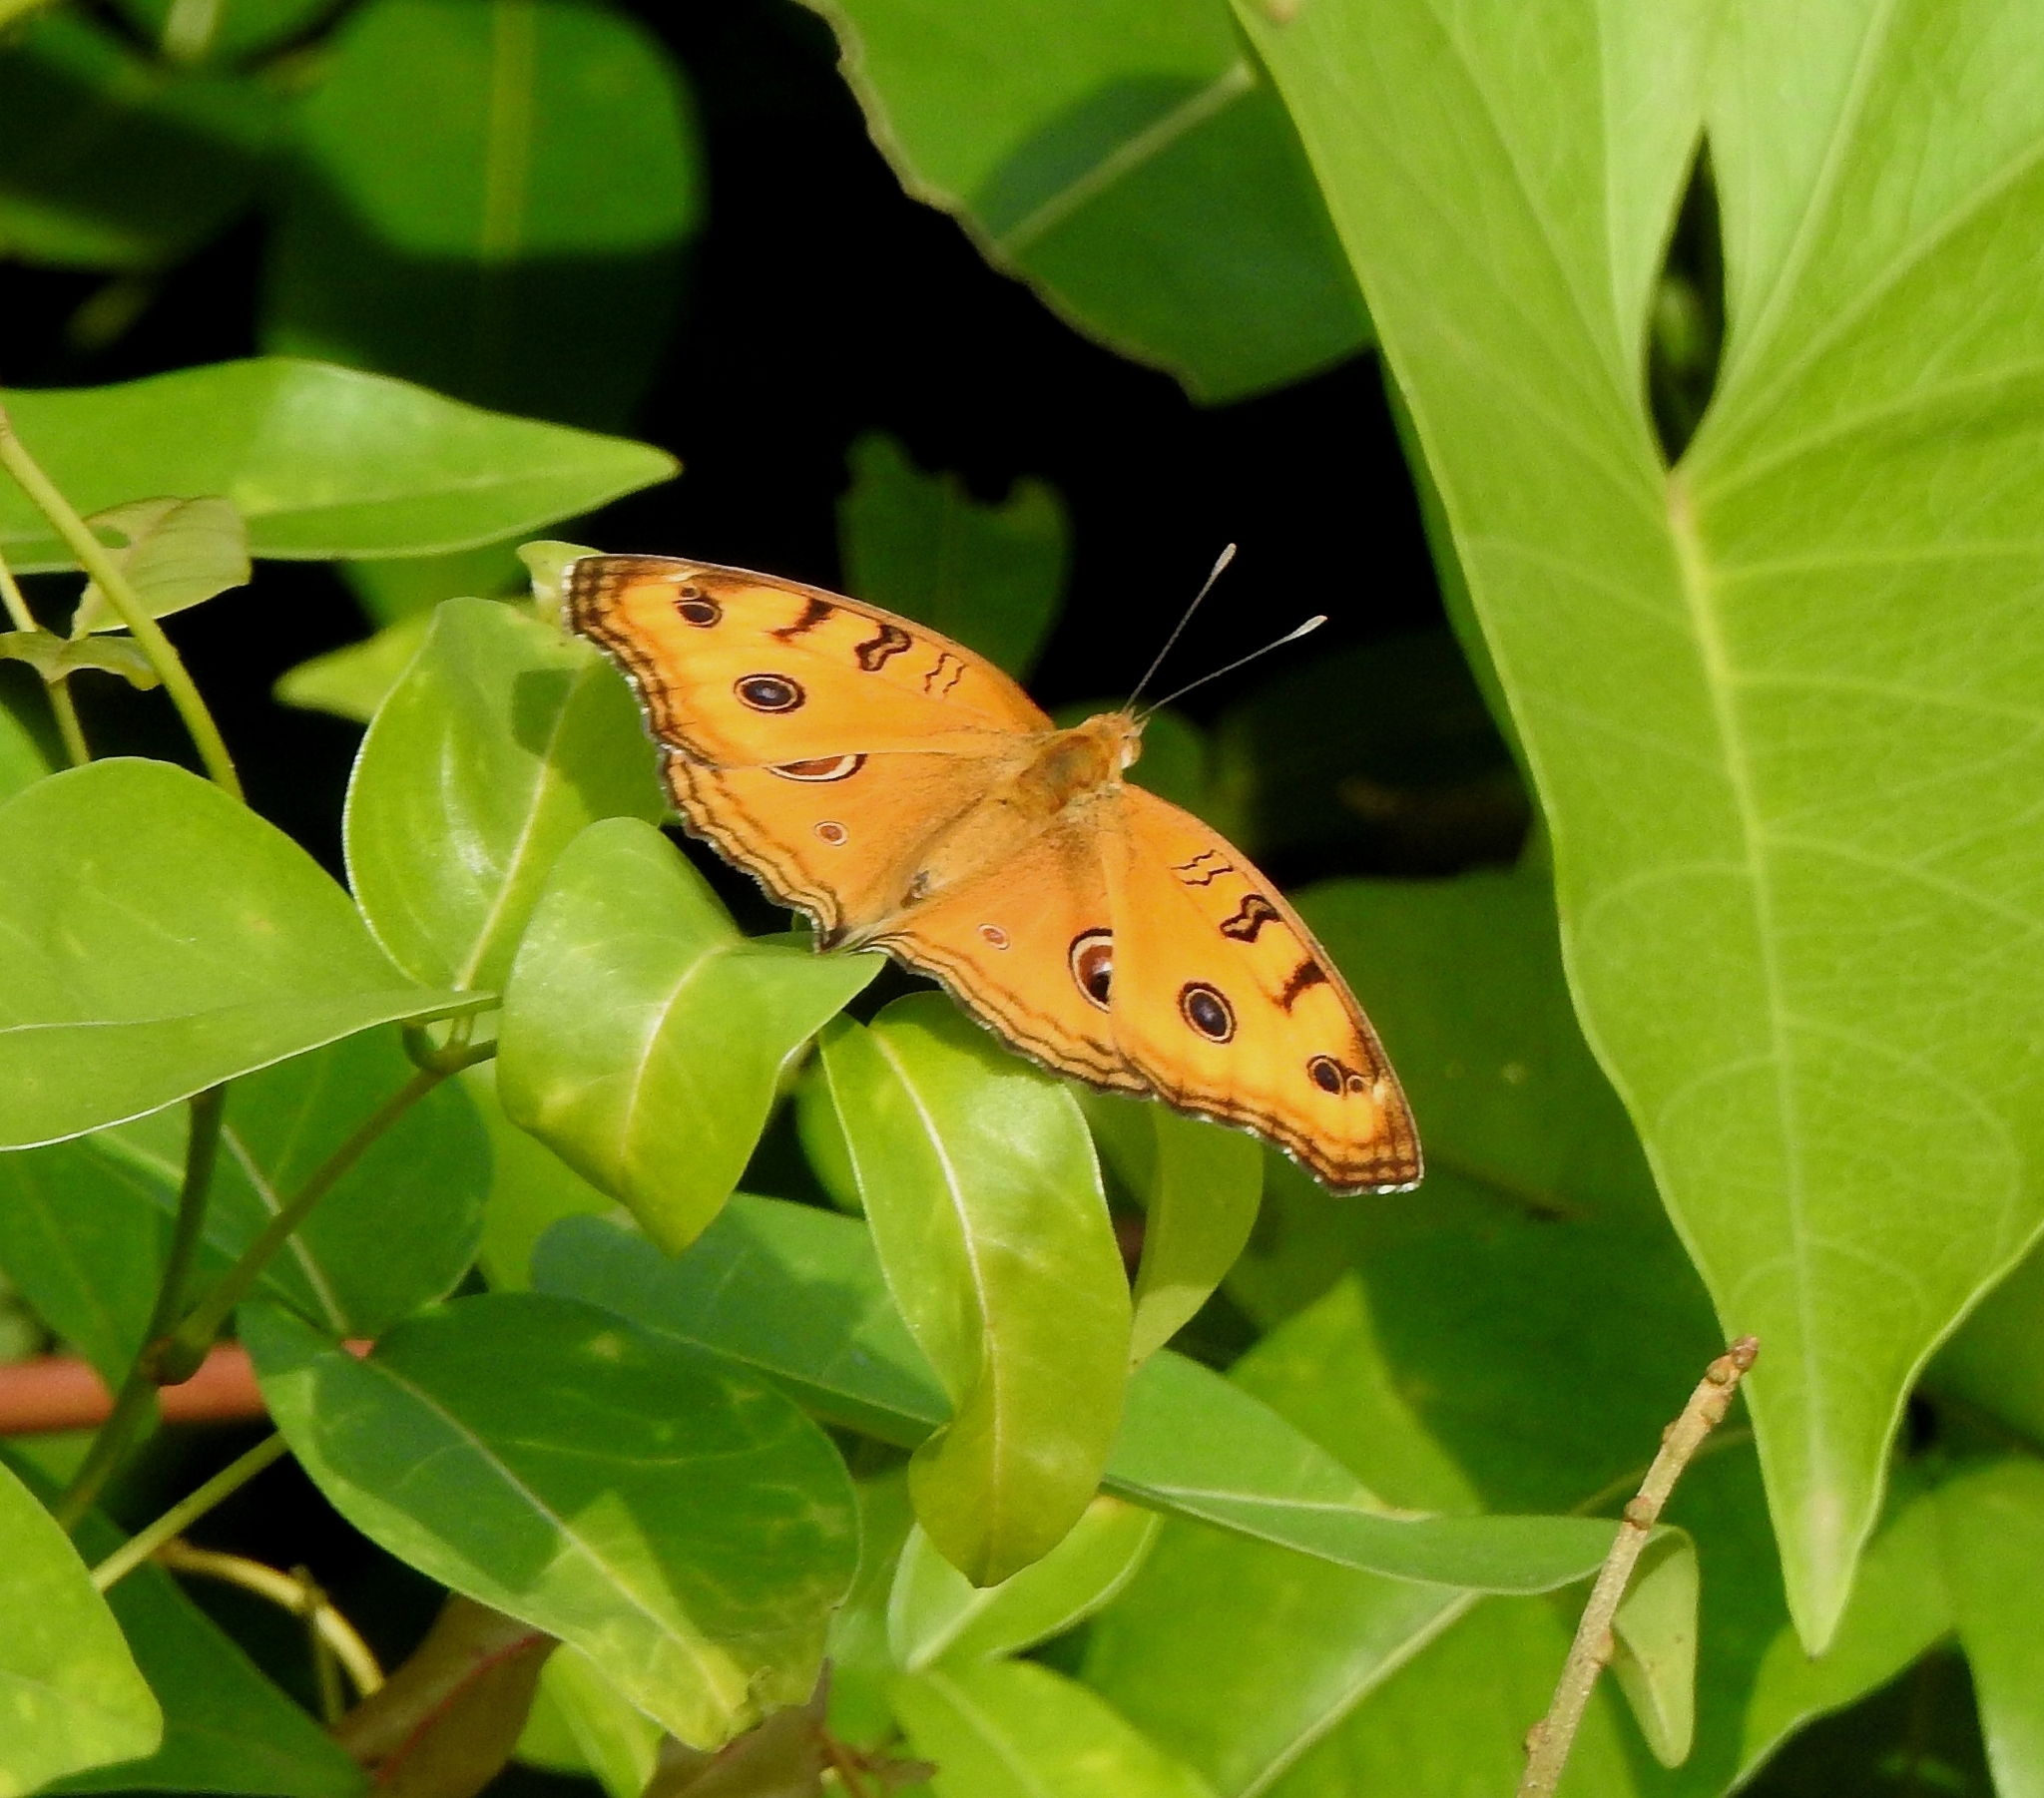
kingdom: Animalia
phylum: Arthropoda
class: Insecta
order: Lepidoptera
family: Nymphalidae
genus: Junonia
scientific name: Junonia almana
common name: Peacock pansy
